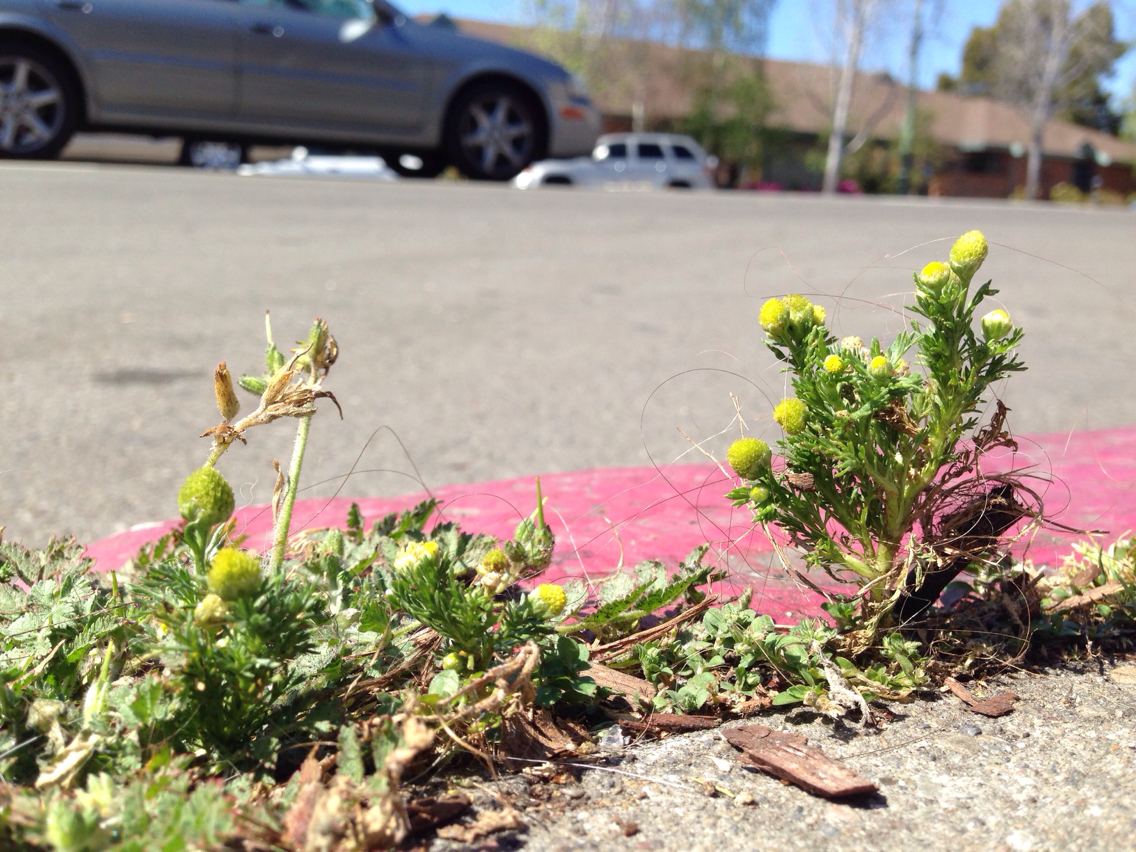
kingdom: Plantae
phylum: Tracheophyta
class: Magnoliopsida
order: Asterales
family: Asteraceae
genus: Matricaria
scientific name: Matricaria discoidea
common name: Disc mayweed
